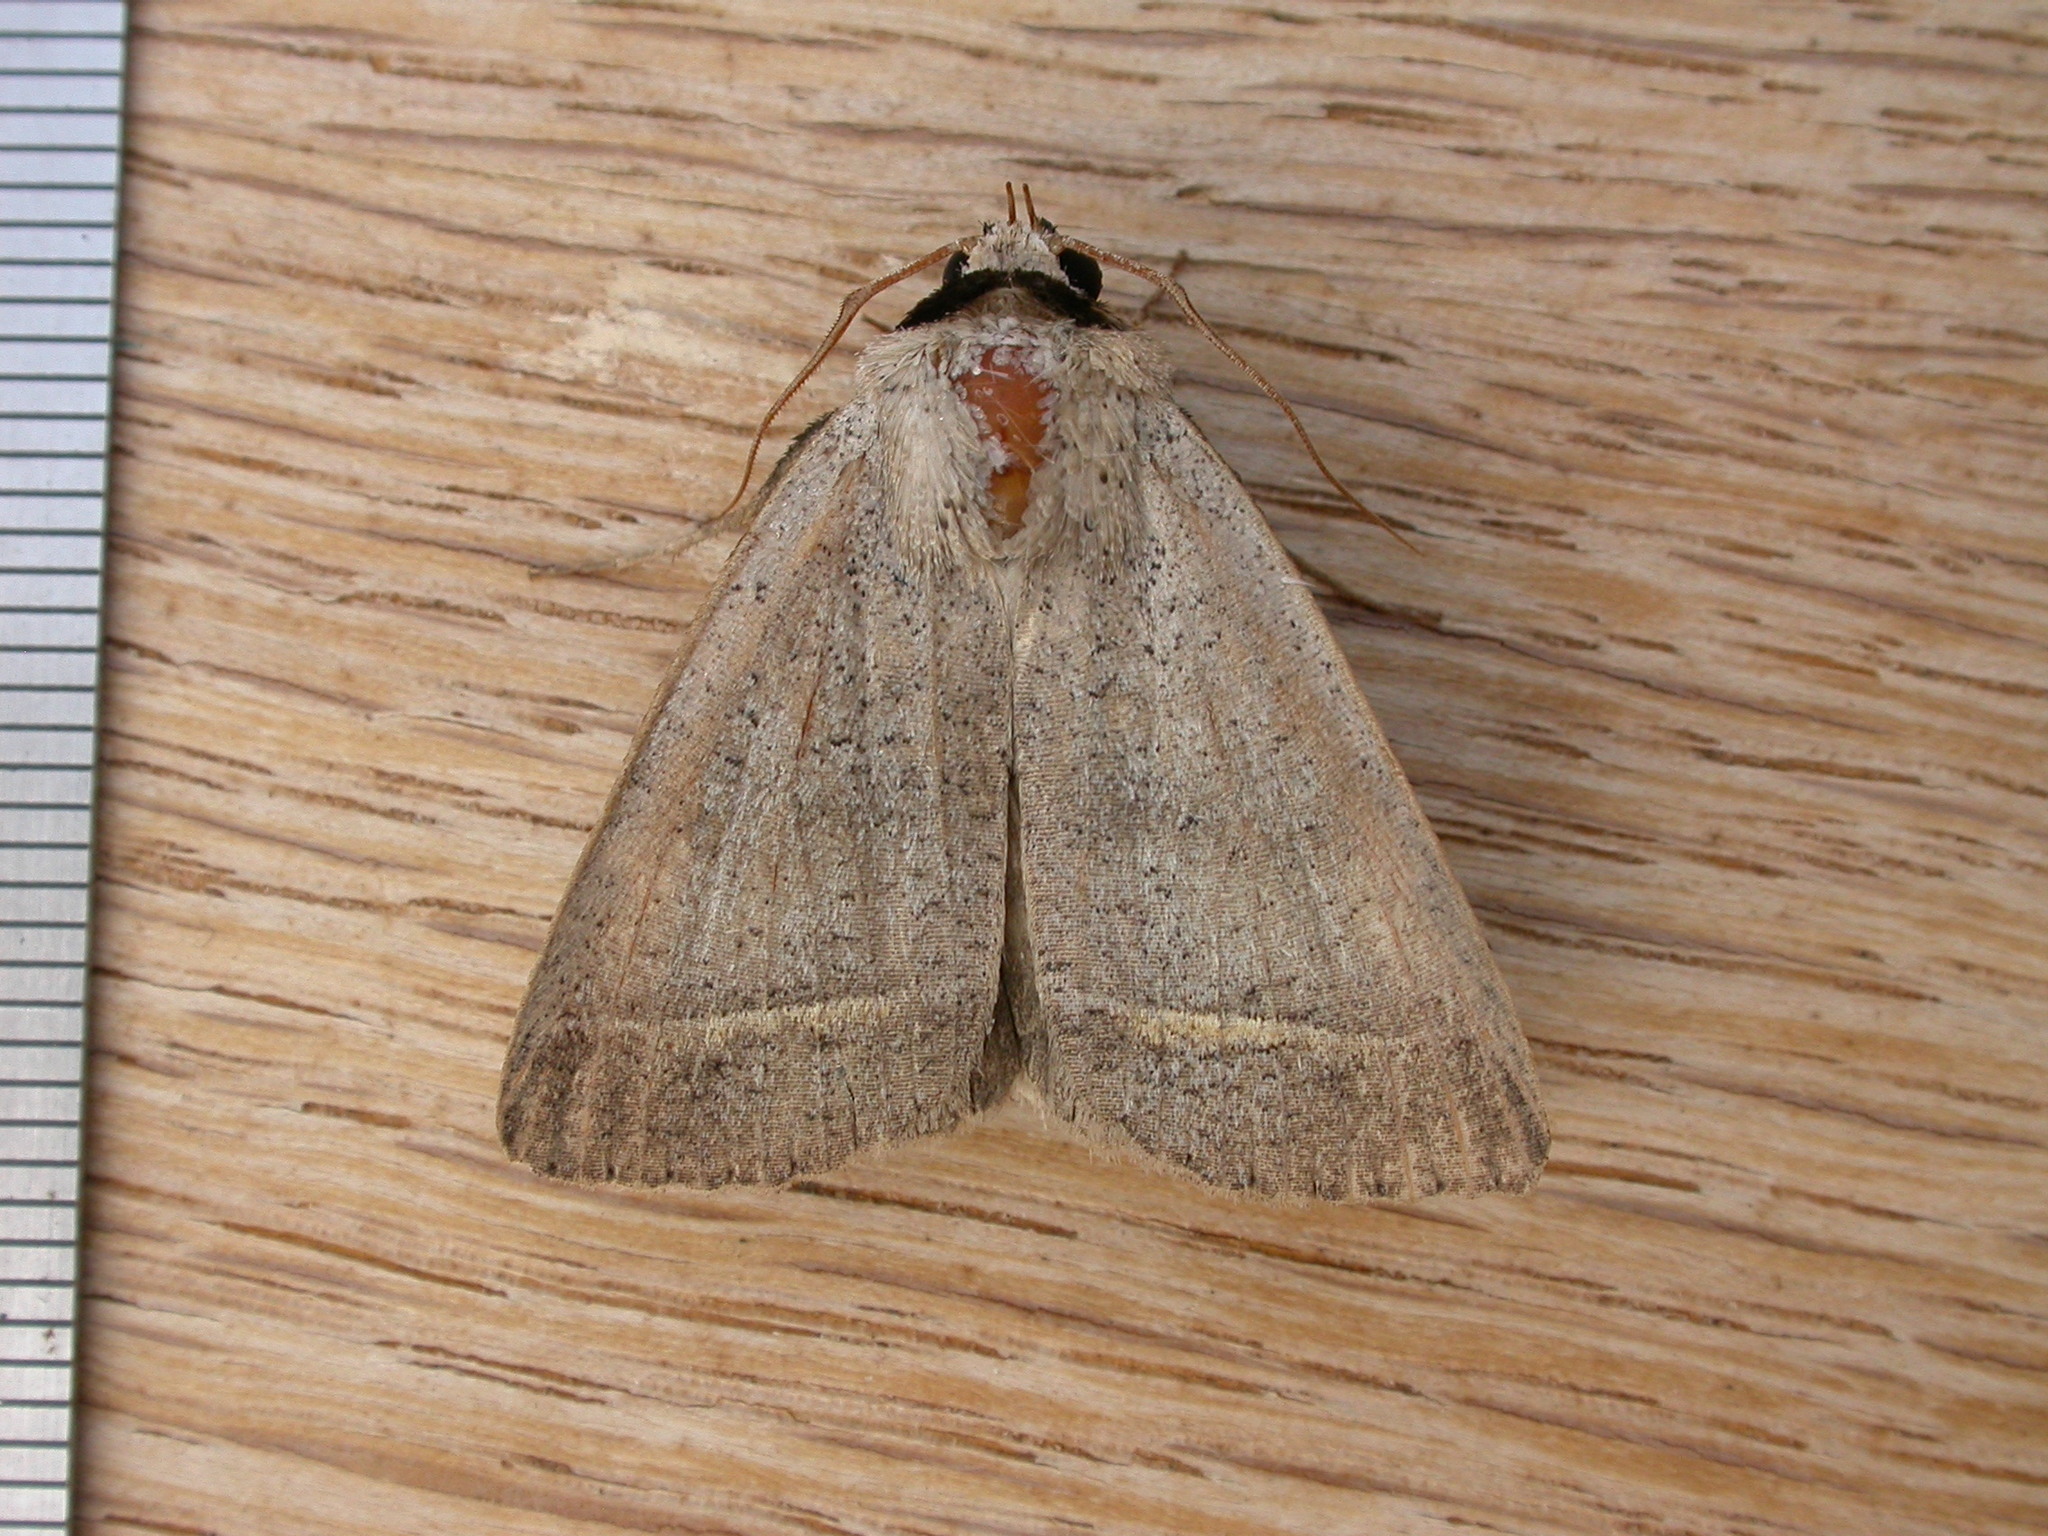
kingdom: Animalia
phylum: Arthropoda
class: Insecta
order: Lepidoptera
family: Erebidae
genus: Pantydia
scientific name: Pantydia sparsa
